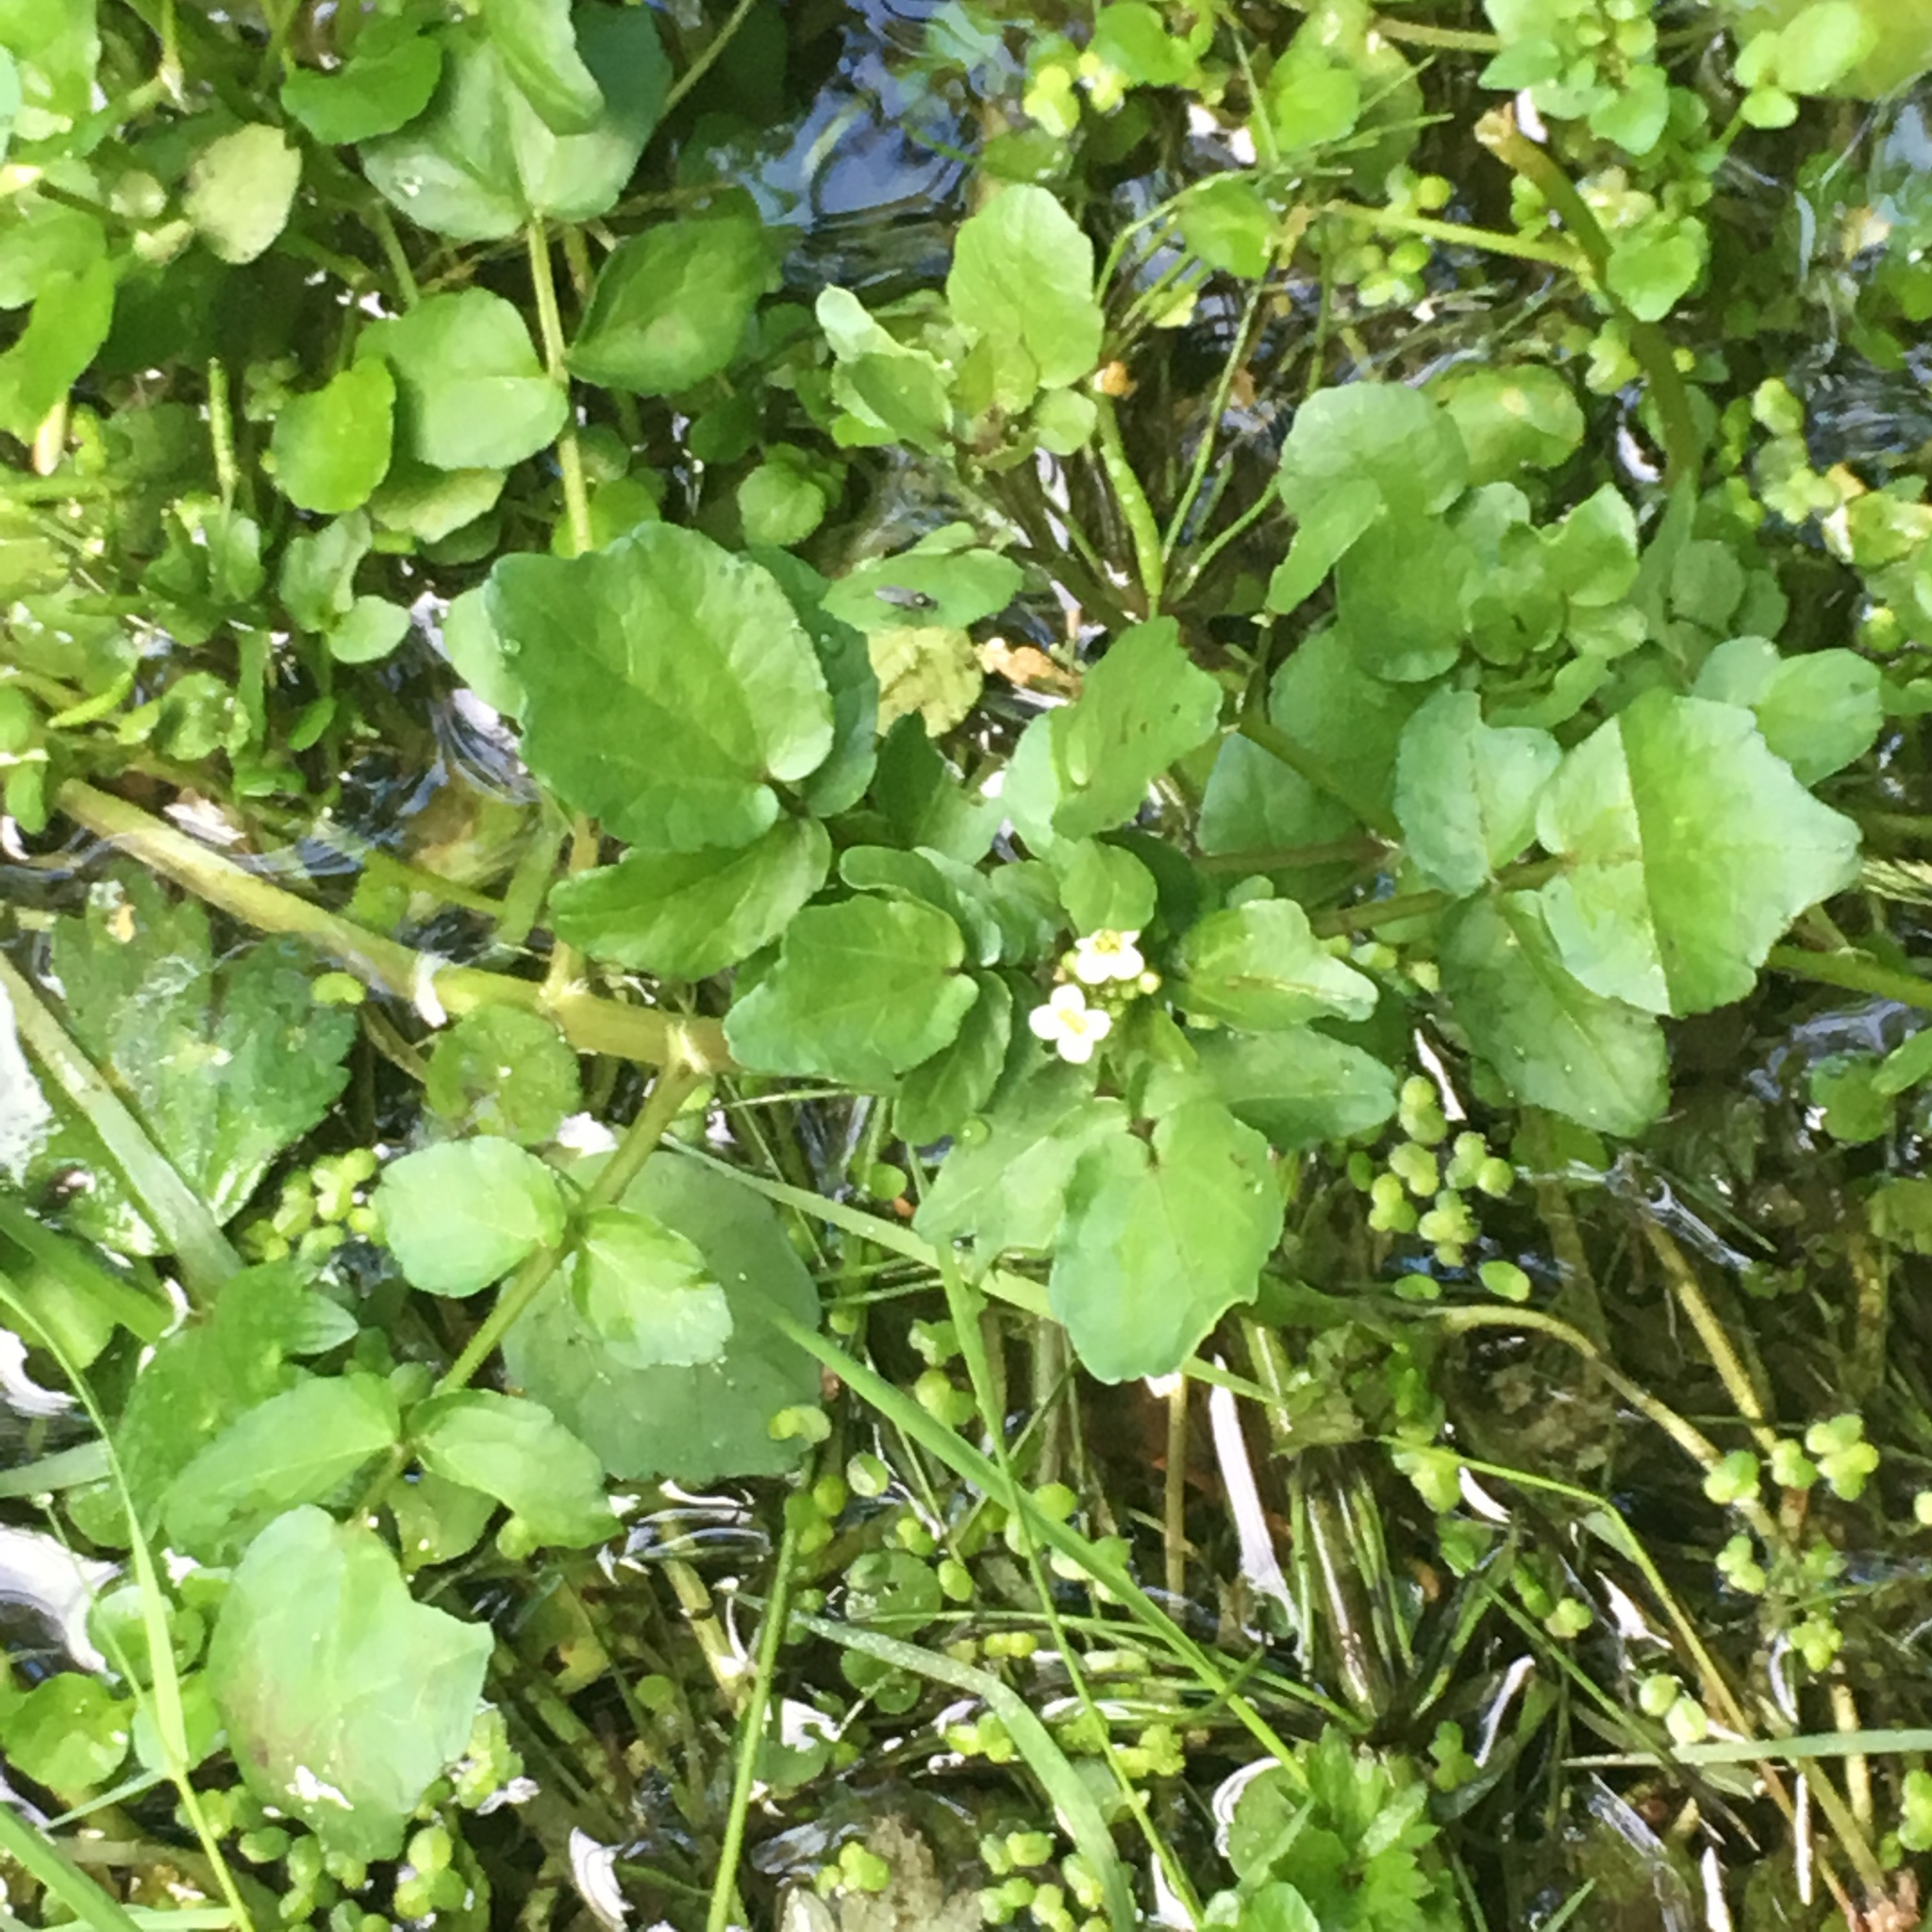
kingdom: Plantae
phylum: Tracheophyta
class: Magnoliopsida
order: Brassicales
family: Brassicaceae
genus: Nasturtium
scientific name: Nasturtium officinale
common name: Watercress
